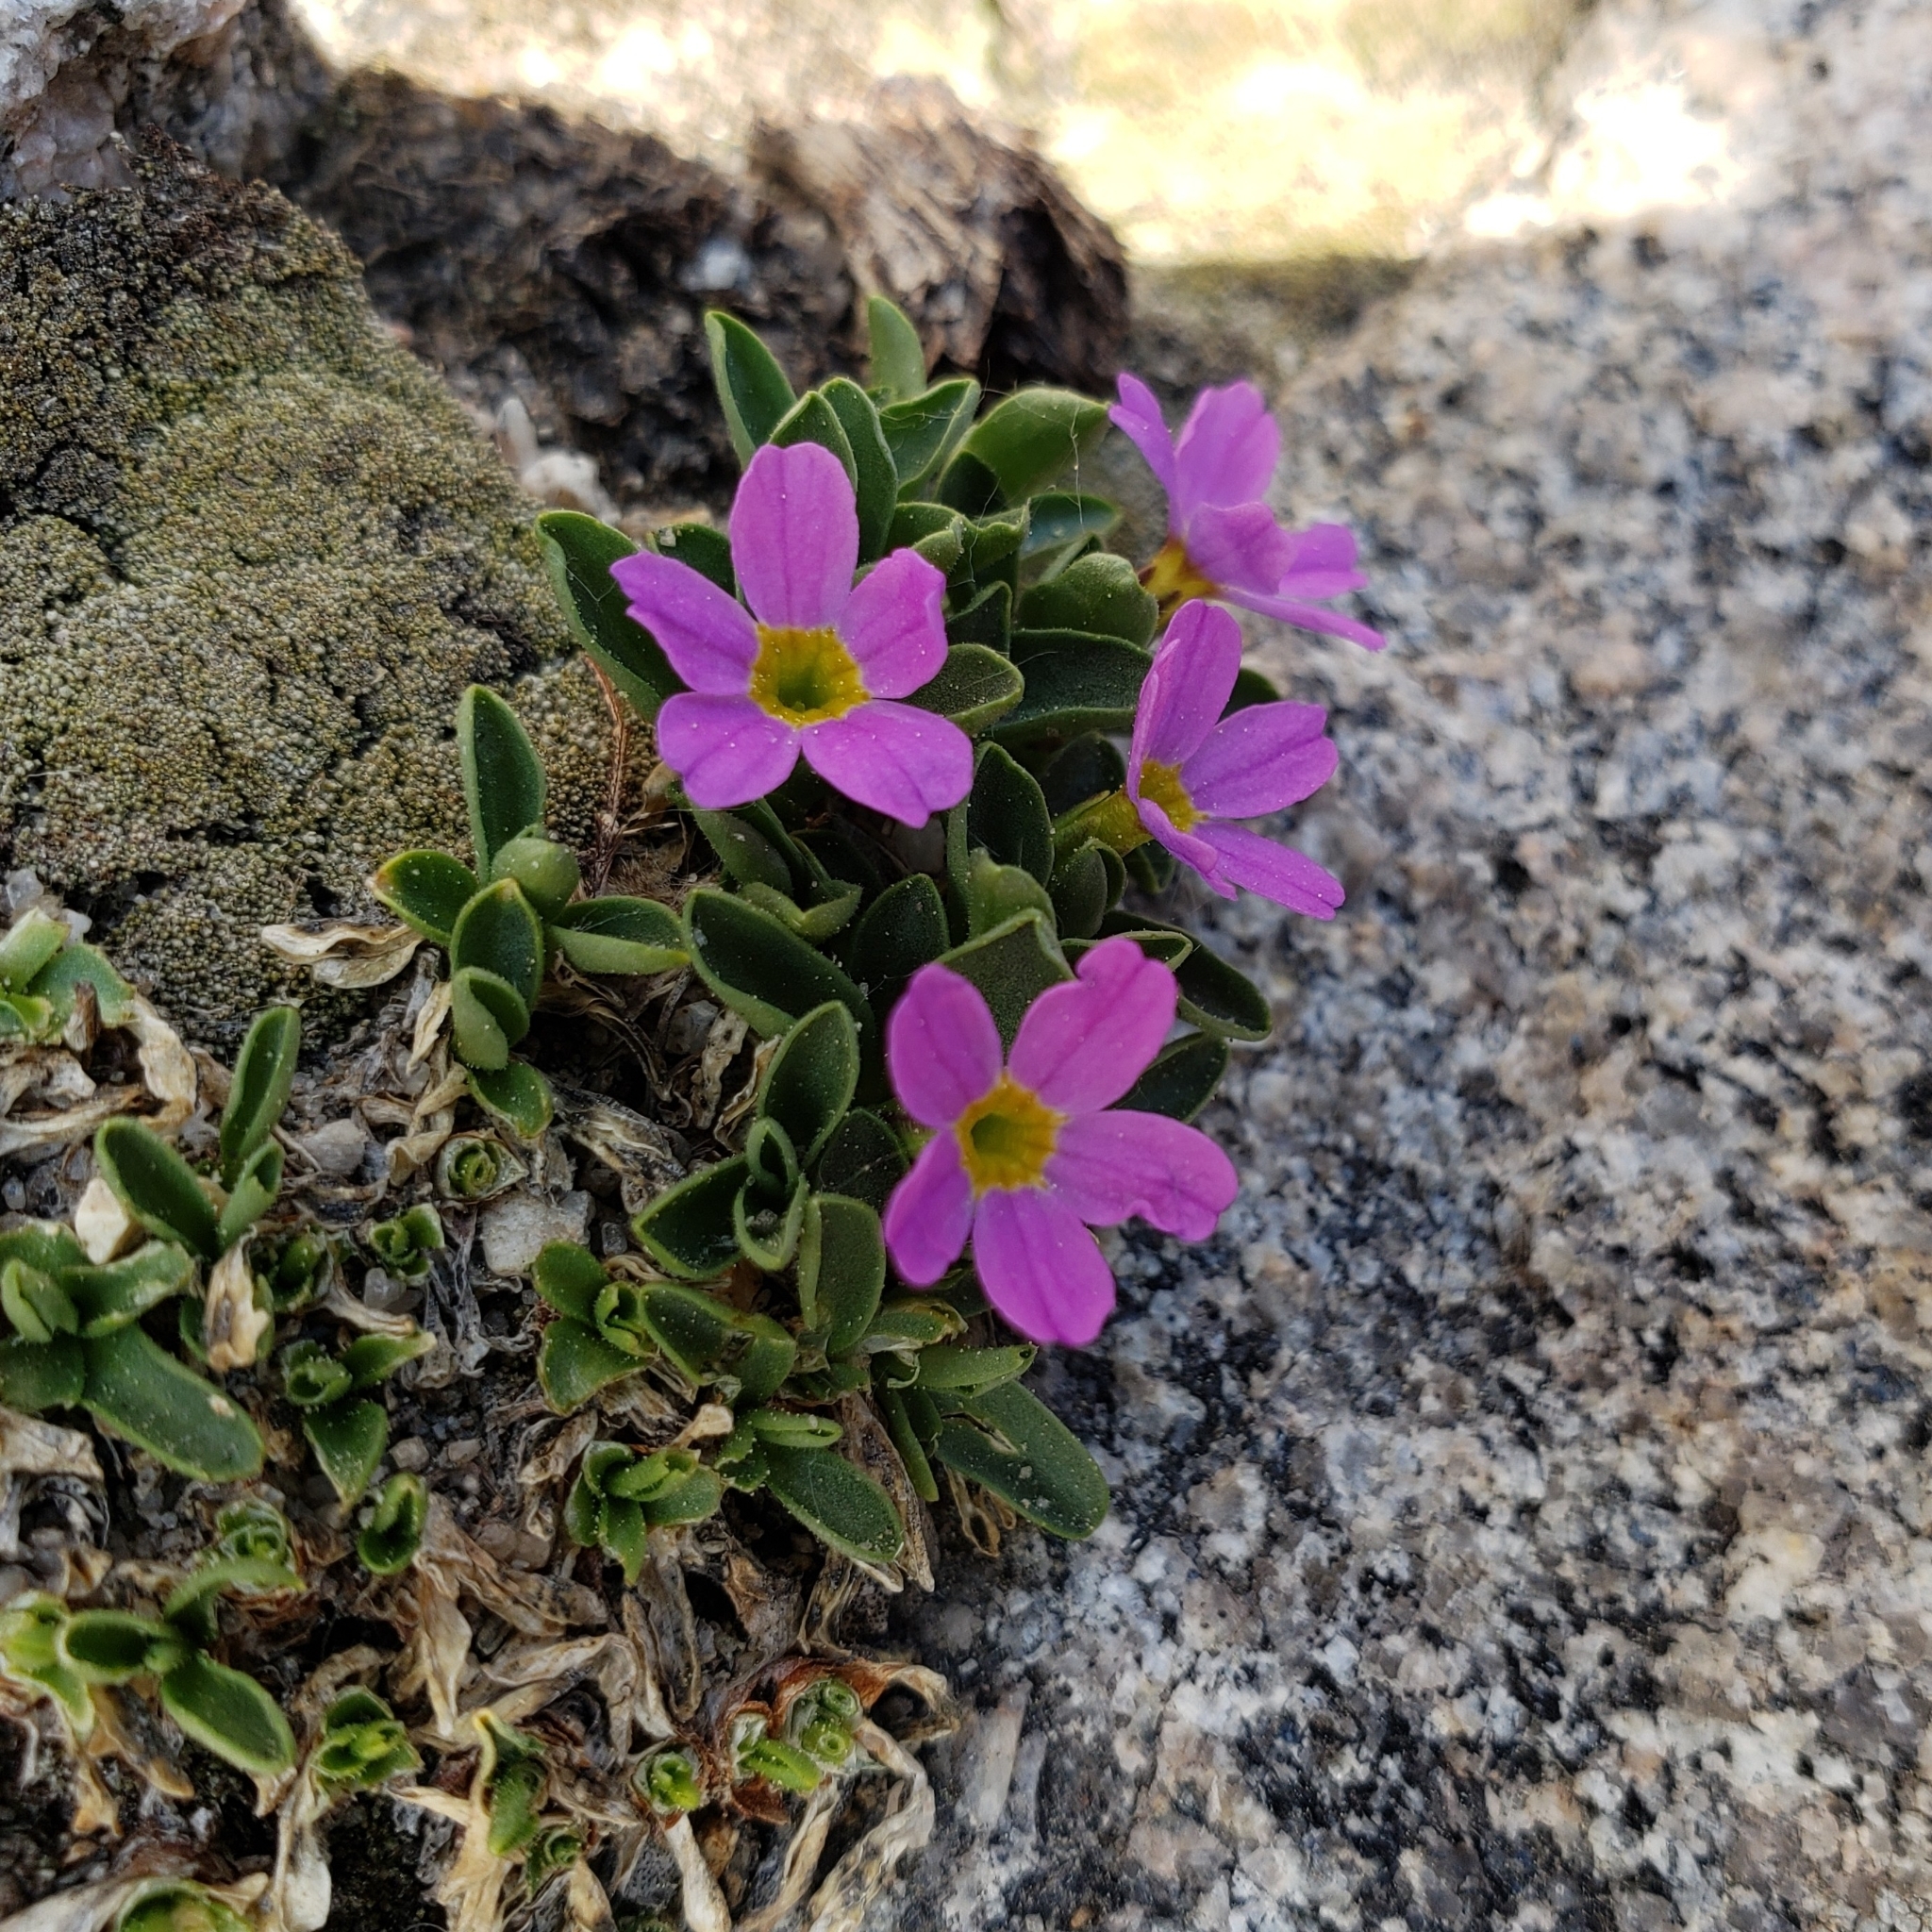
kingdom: Plantae
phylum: Tracheophyta
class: Magnoliopsida
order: Ericales
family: Primulaceae
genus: Primula
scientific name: Primula angustifolia
